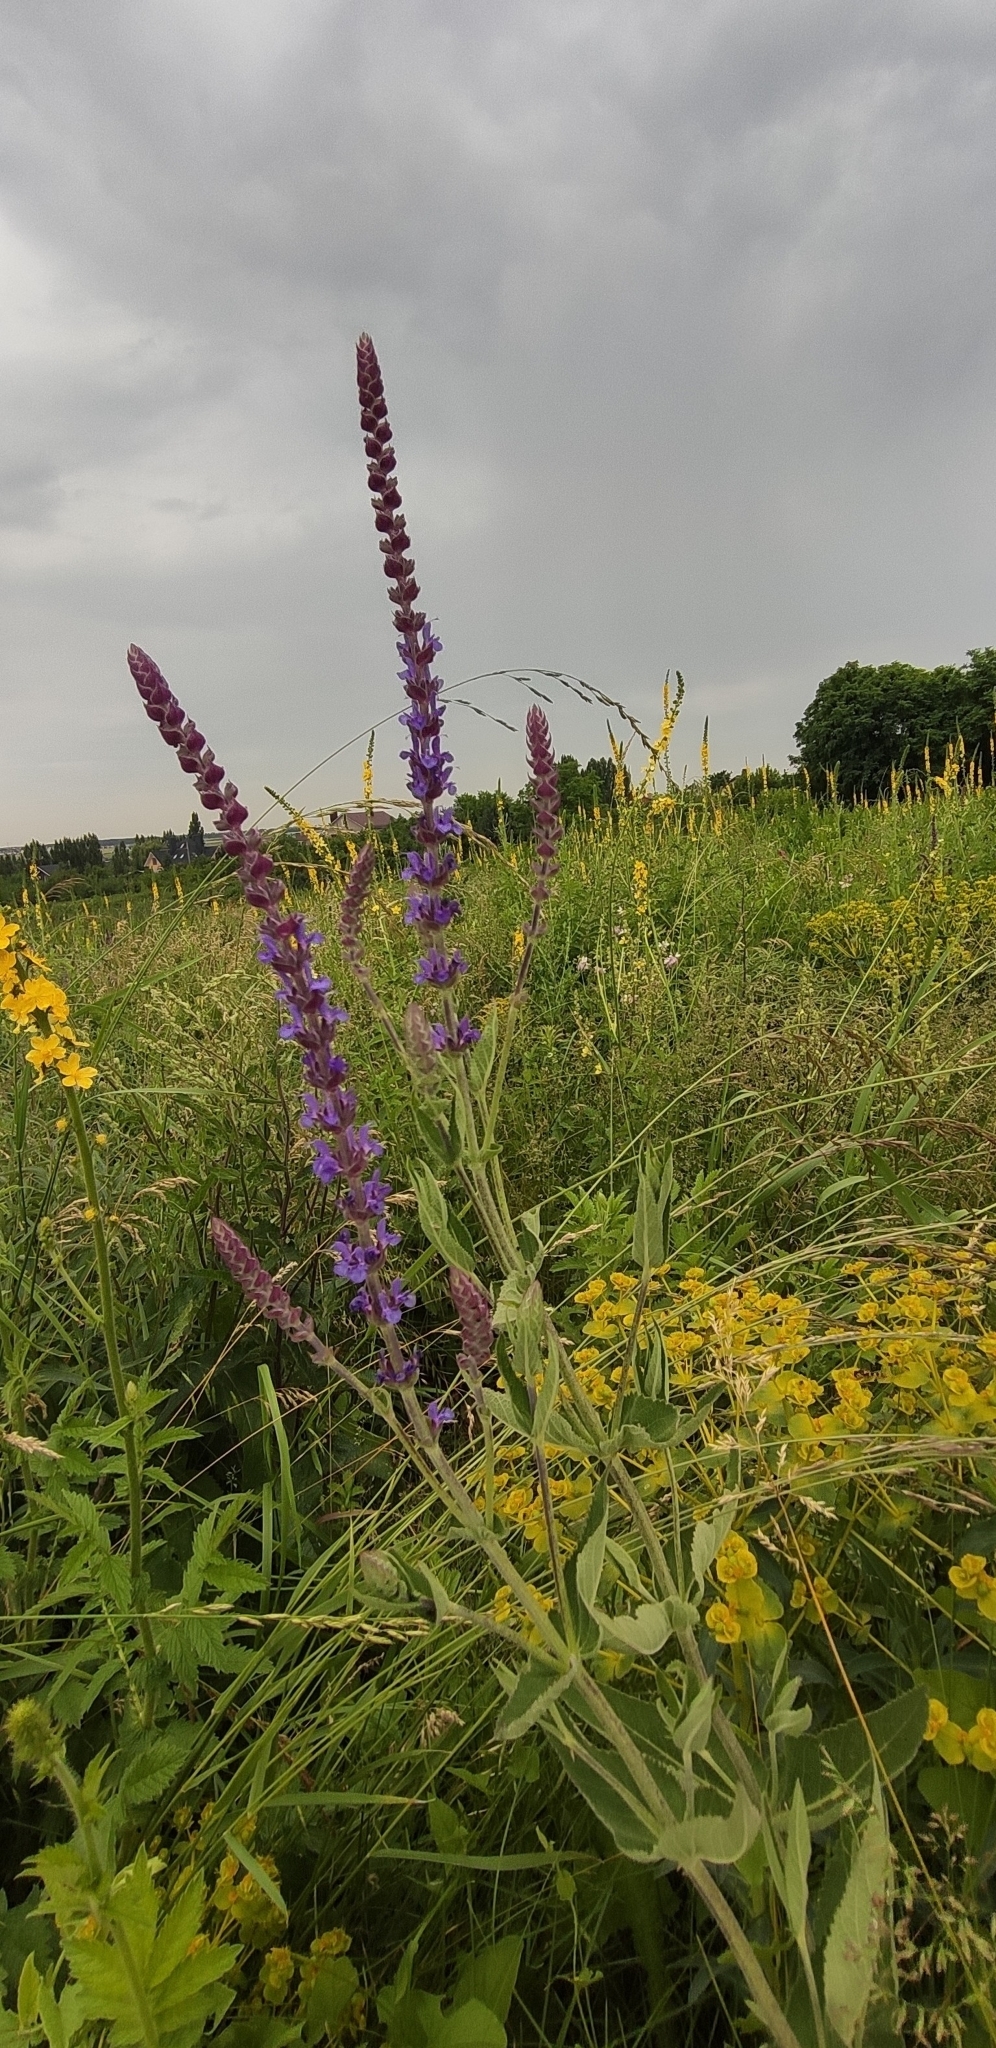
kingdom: Plantae
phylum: Tracheophyta
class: Magnoliopsida
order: Lamiales
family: Lamiaceae
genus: Salvia
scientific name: Salvia nemorosa
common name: Balkan clary
